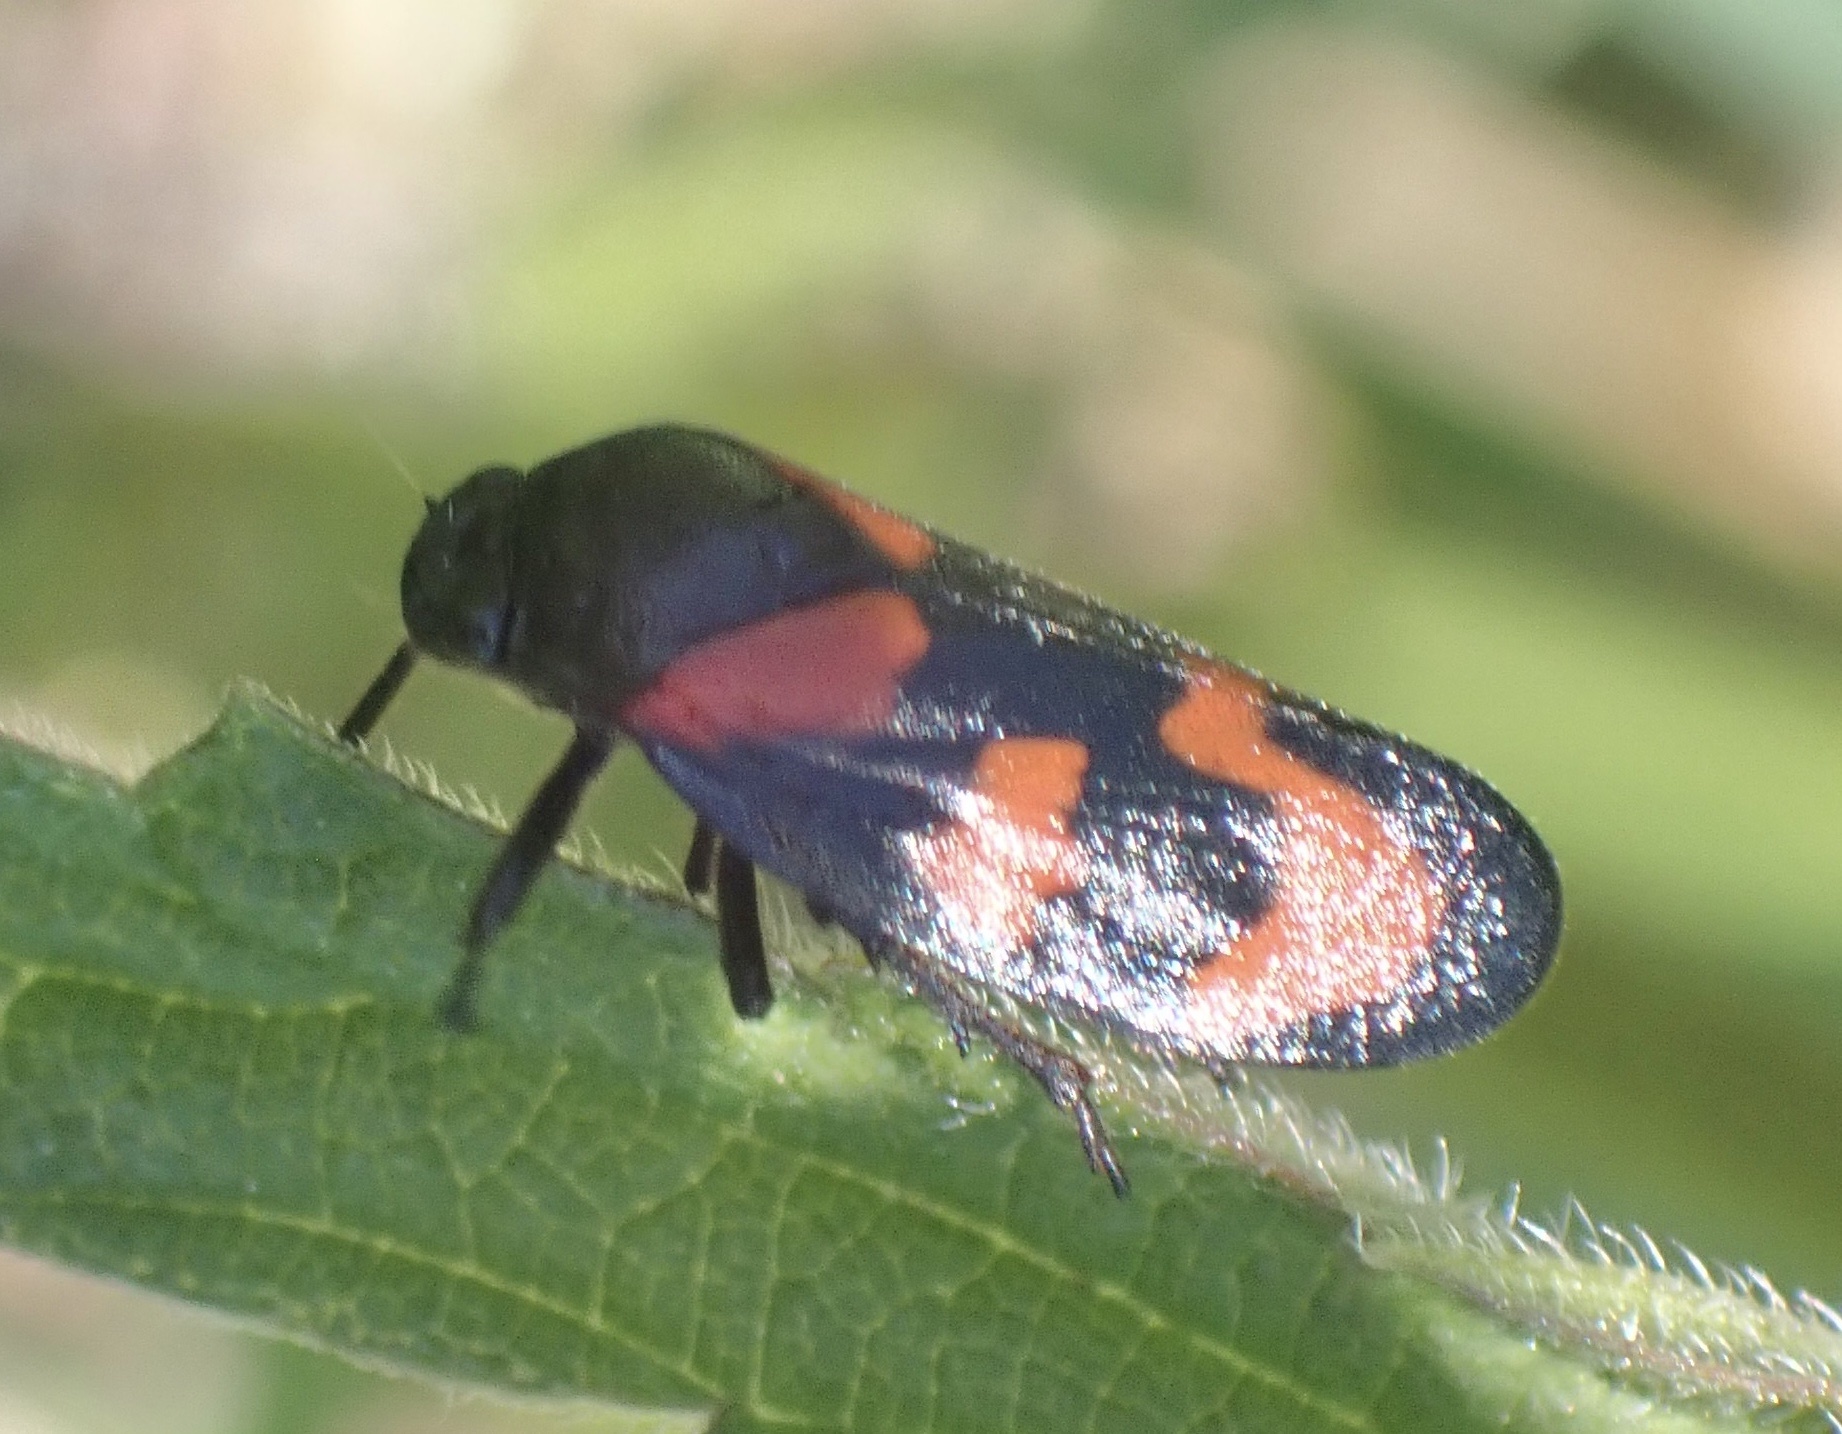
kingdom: Animalia
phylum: Arthropoda
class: Insecta
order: Hemiptera
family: Cercopidae
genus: Cercopis
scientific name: Cercopis vulnerata
